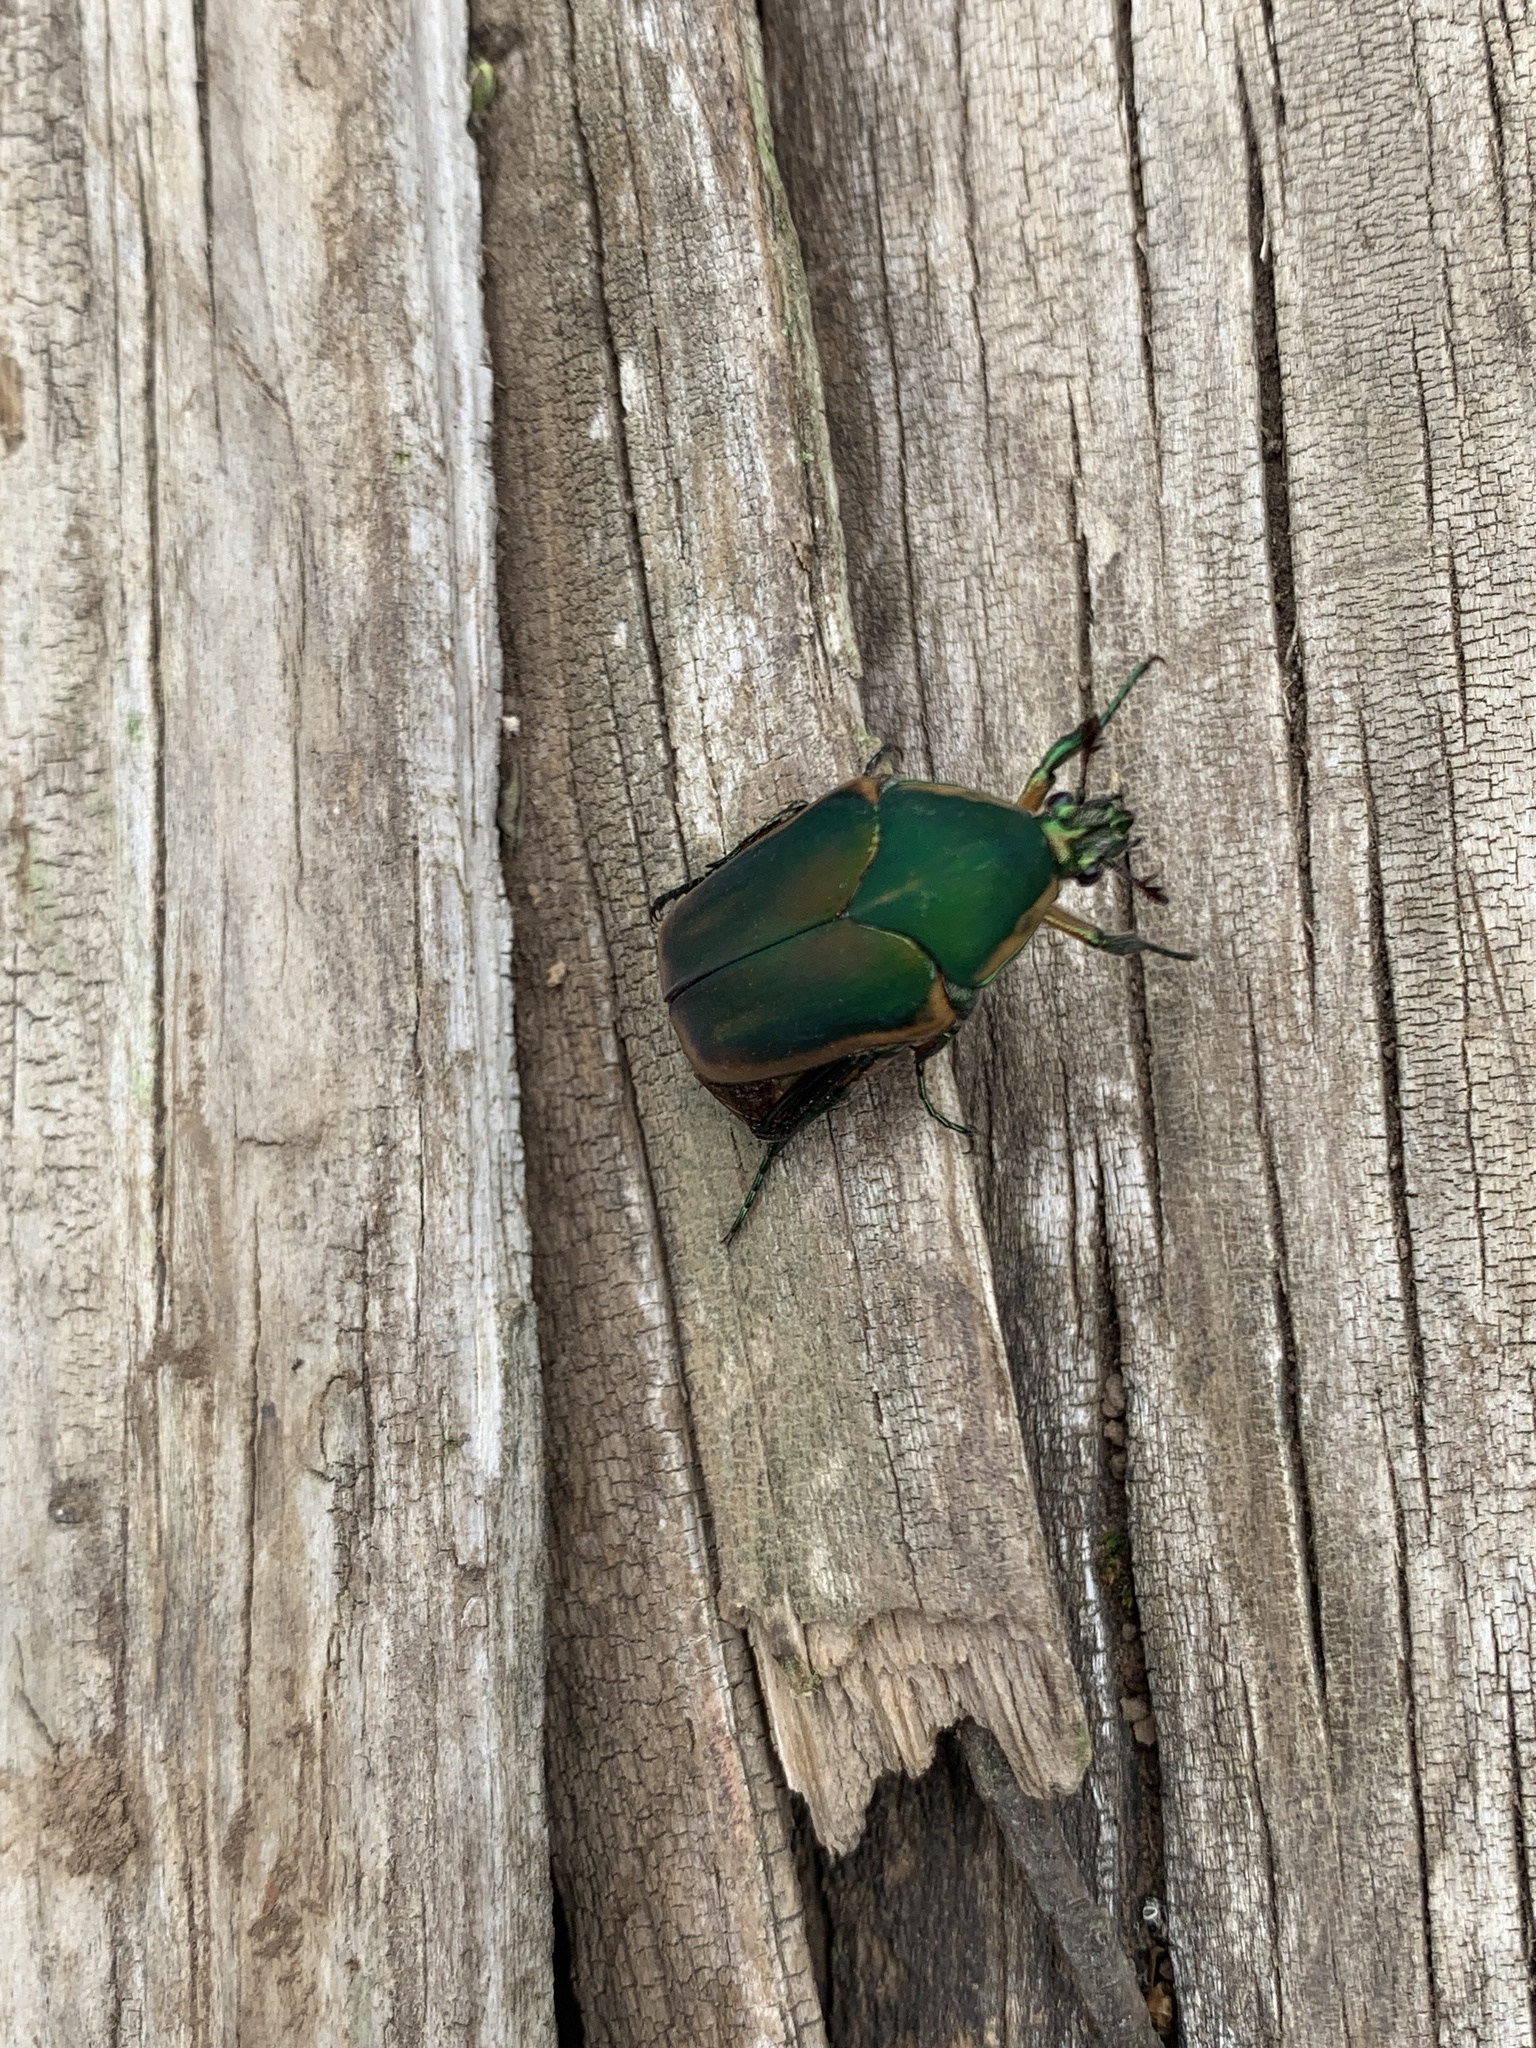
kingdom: Animalia
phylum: Arthropoda
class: Insecta
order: Coleoptera
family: Scarabaeidae
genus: Cotinis
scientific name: Cotinis nitida
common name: Common green june beetle
